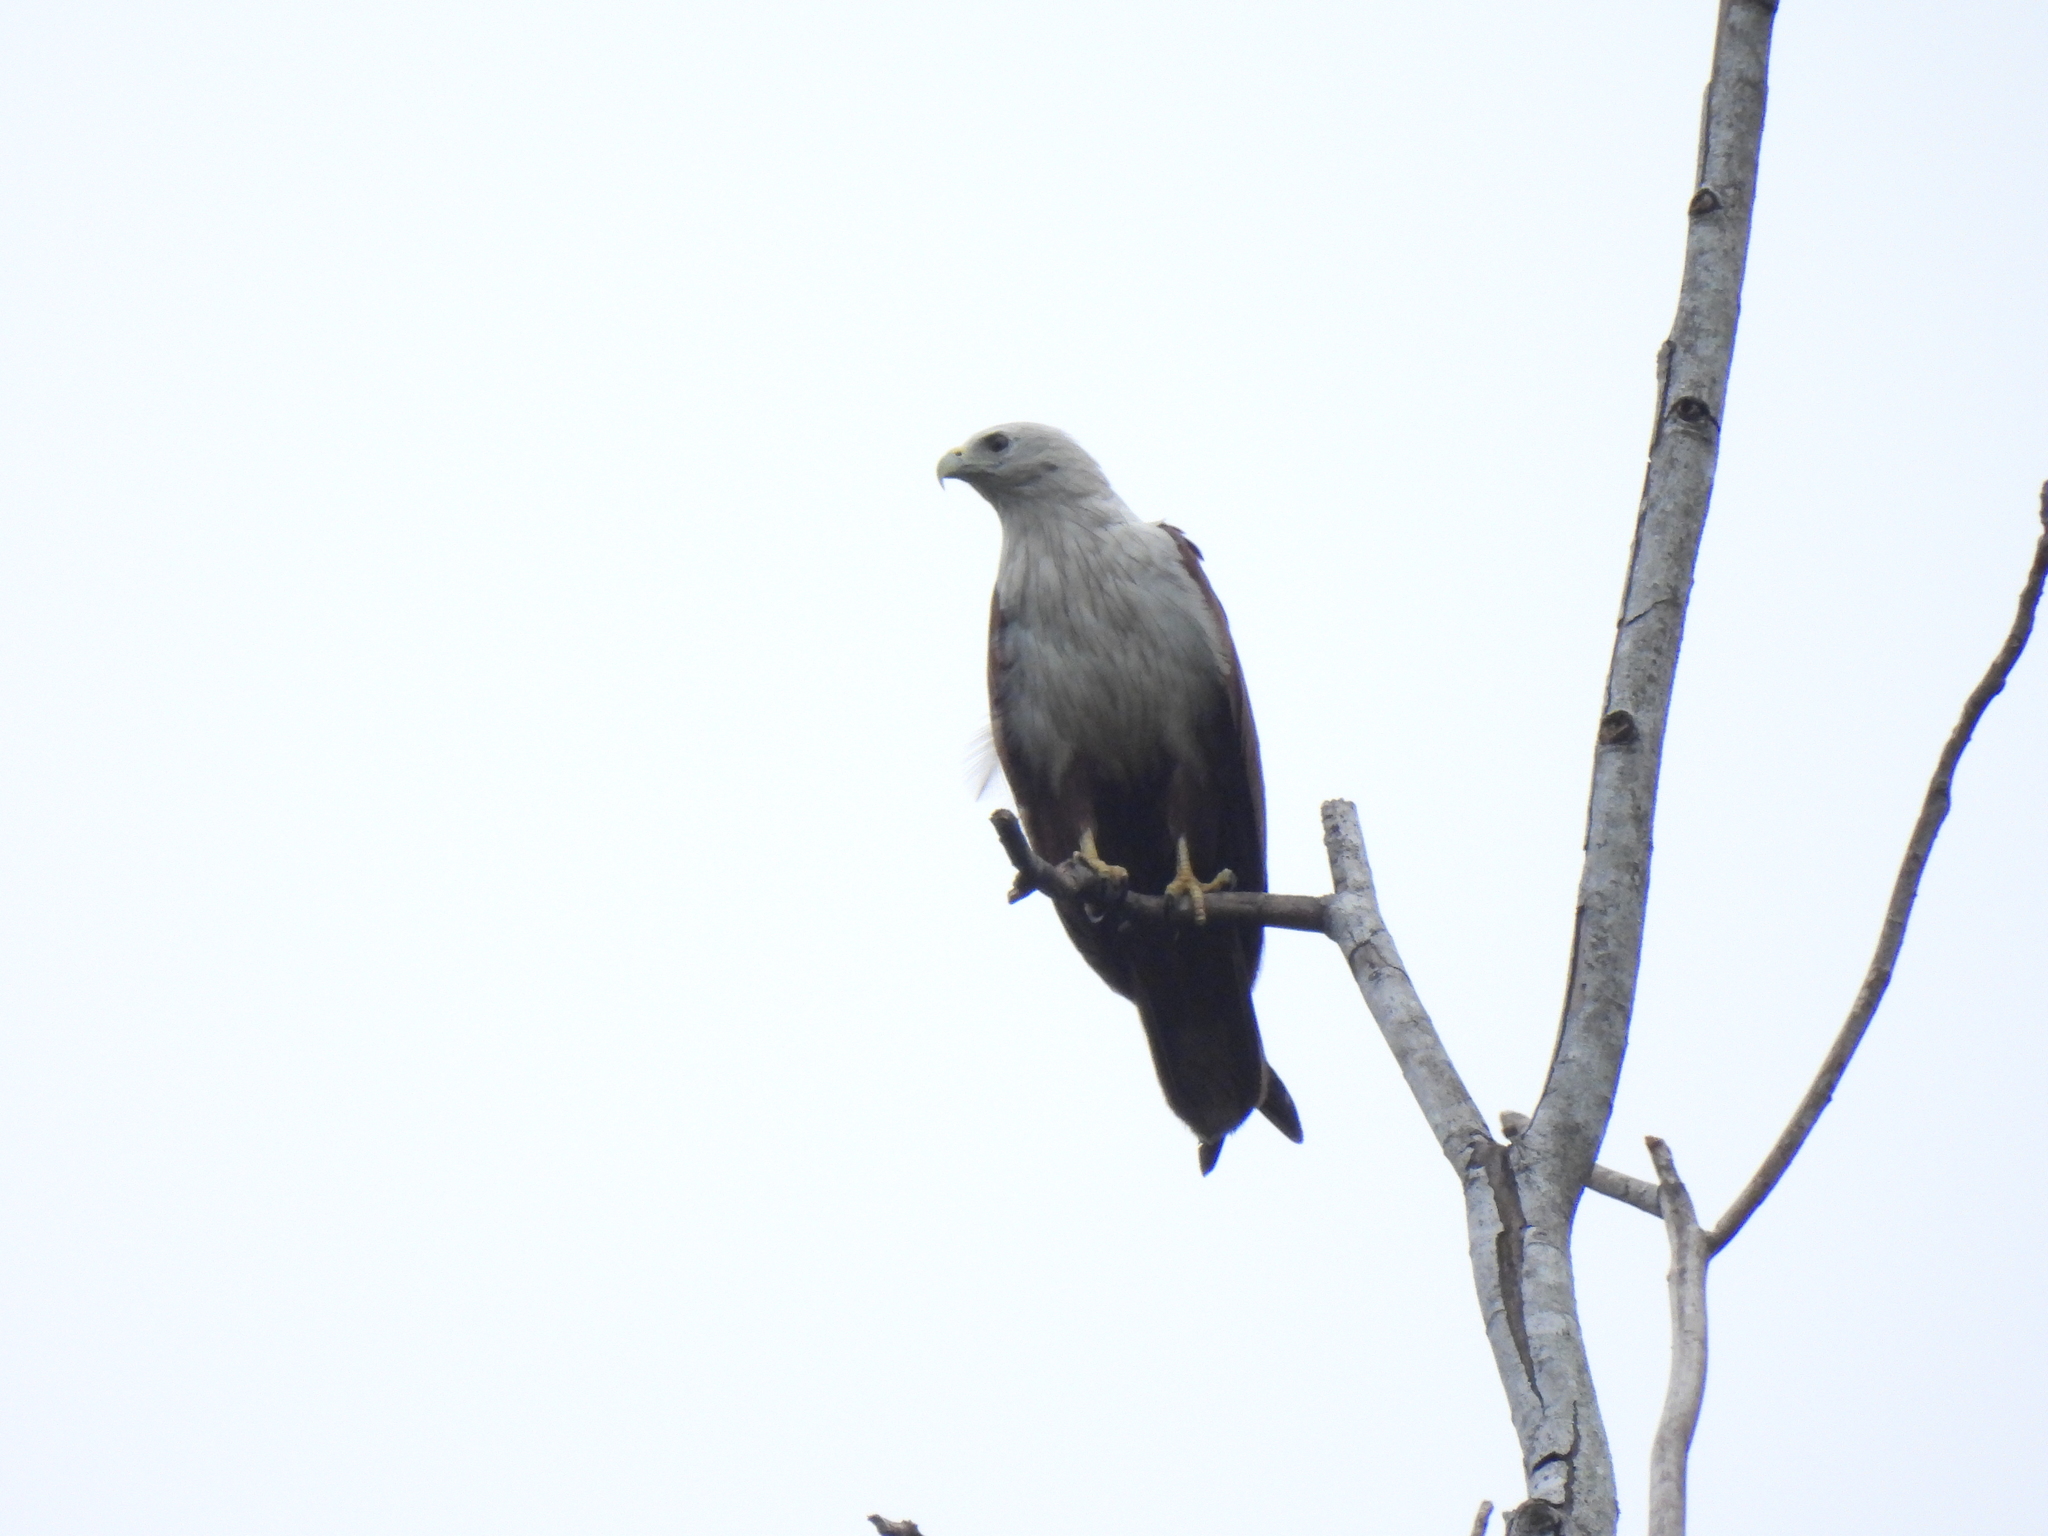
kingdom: Animalia
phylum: Chordata
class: Aves
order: Accipitriformes
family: Accipitridae
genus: Haliastur
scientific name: Haliastur indus
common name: Brahminy kite
